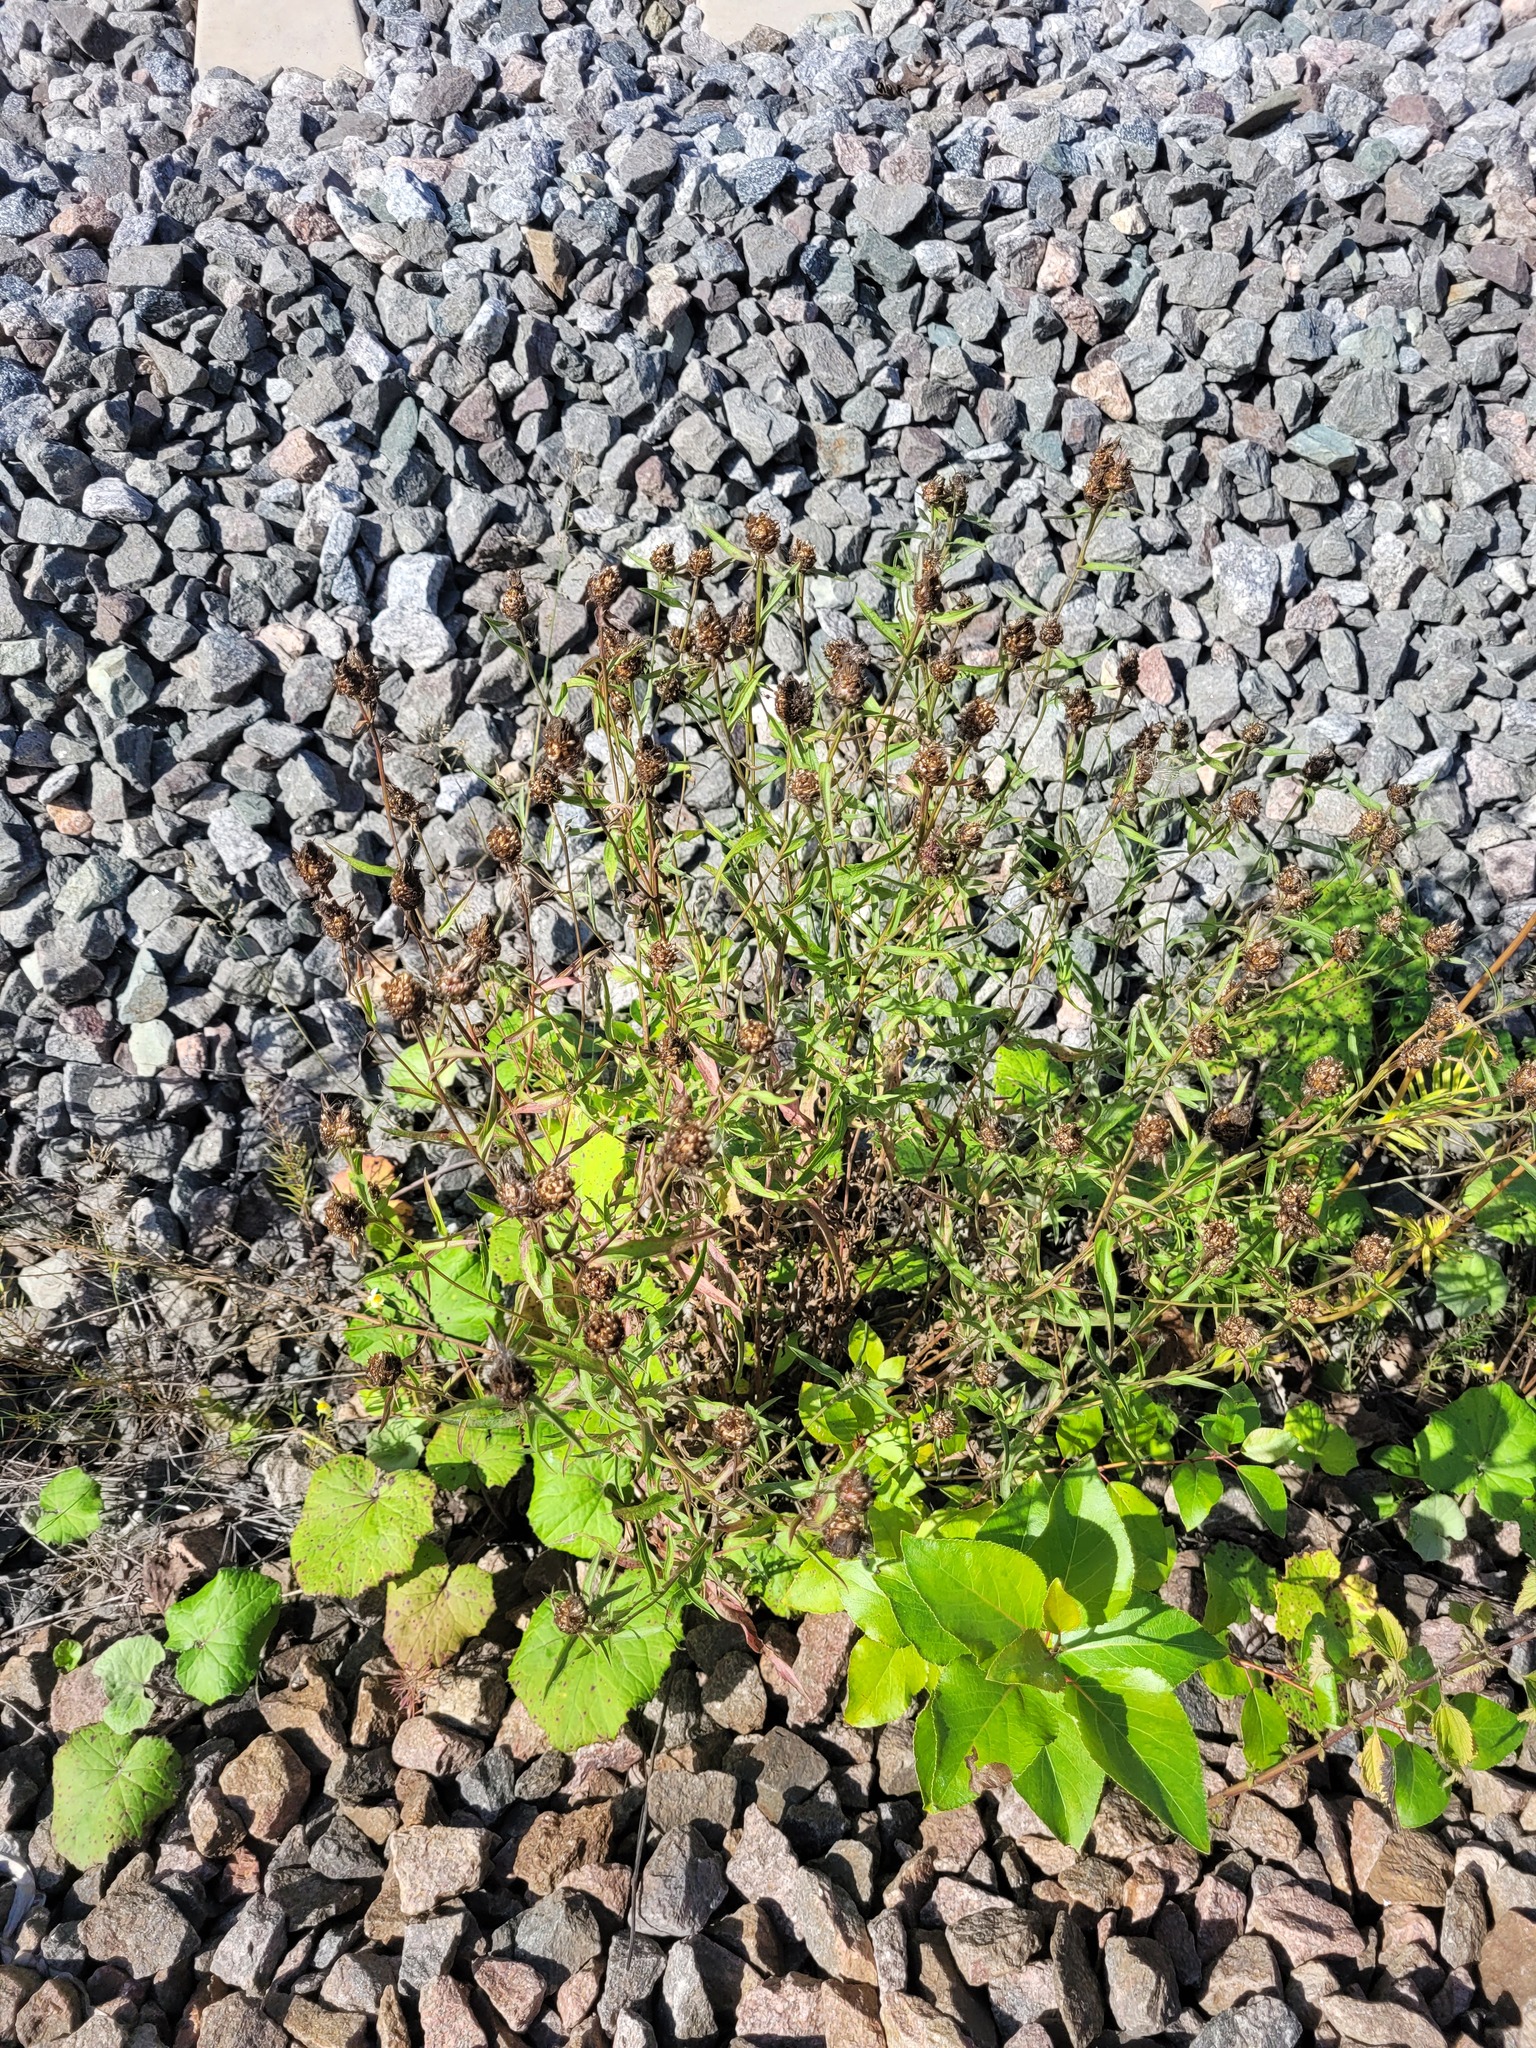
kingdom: Plantae
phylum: Tracheophyta
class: Magnoliopsida
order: Asterales
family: Asteraceae
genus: Centaurea
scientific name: Centaurea jacea
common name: Brown knapweed
